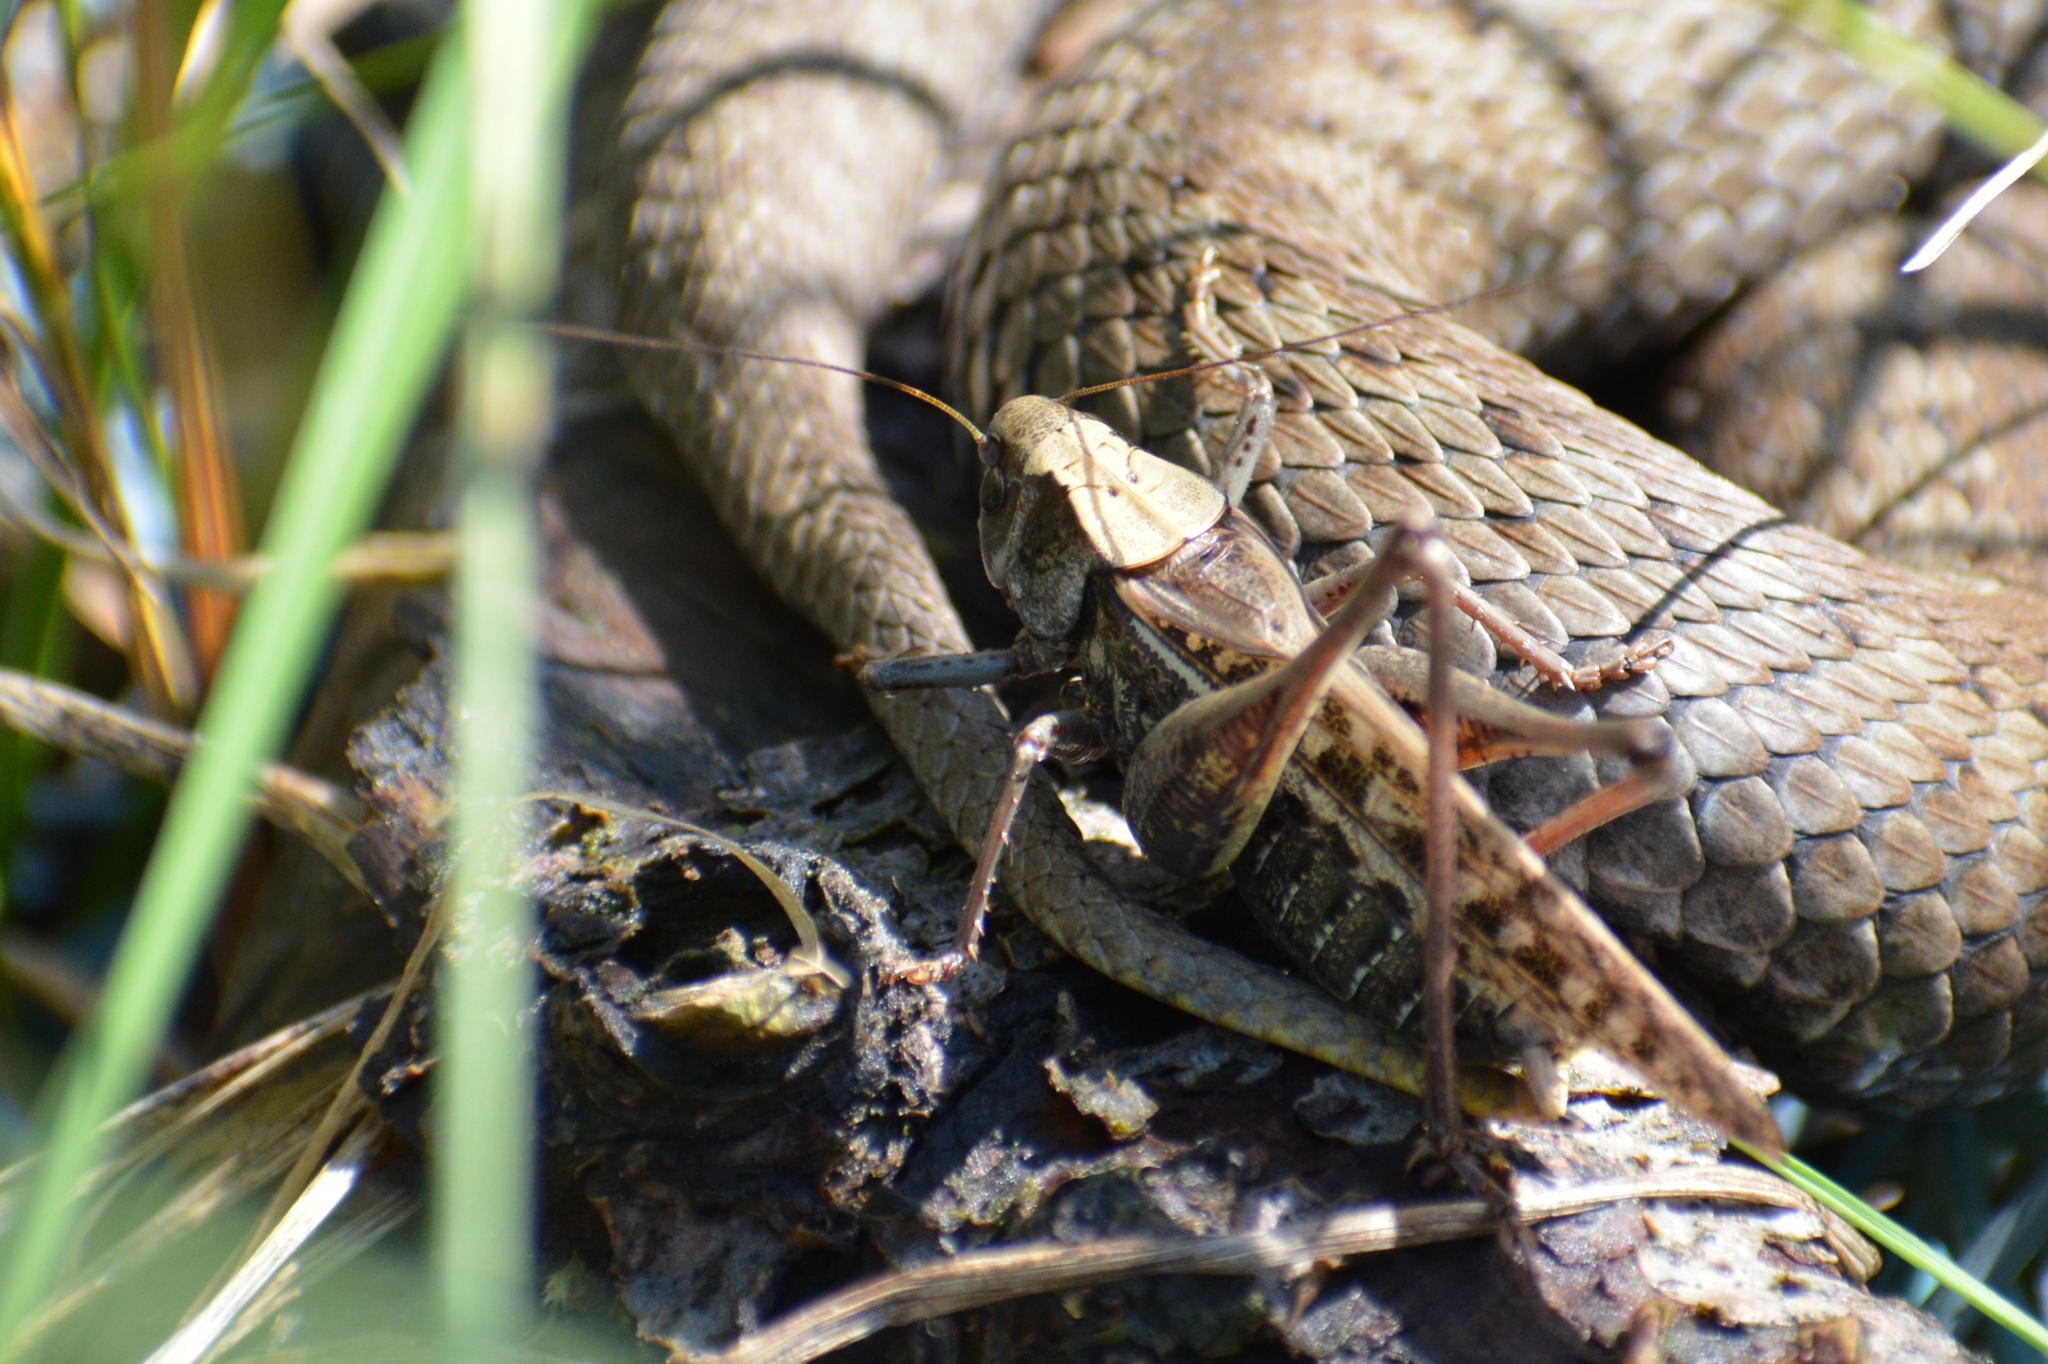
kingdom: Animalia
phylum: Arthropoda
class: Insecta
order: Orthoptera
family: Tettigoniidae
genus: Decticus
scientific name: Decticus verrucivorus
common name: Wart-biter
